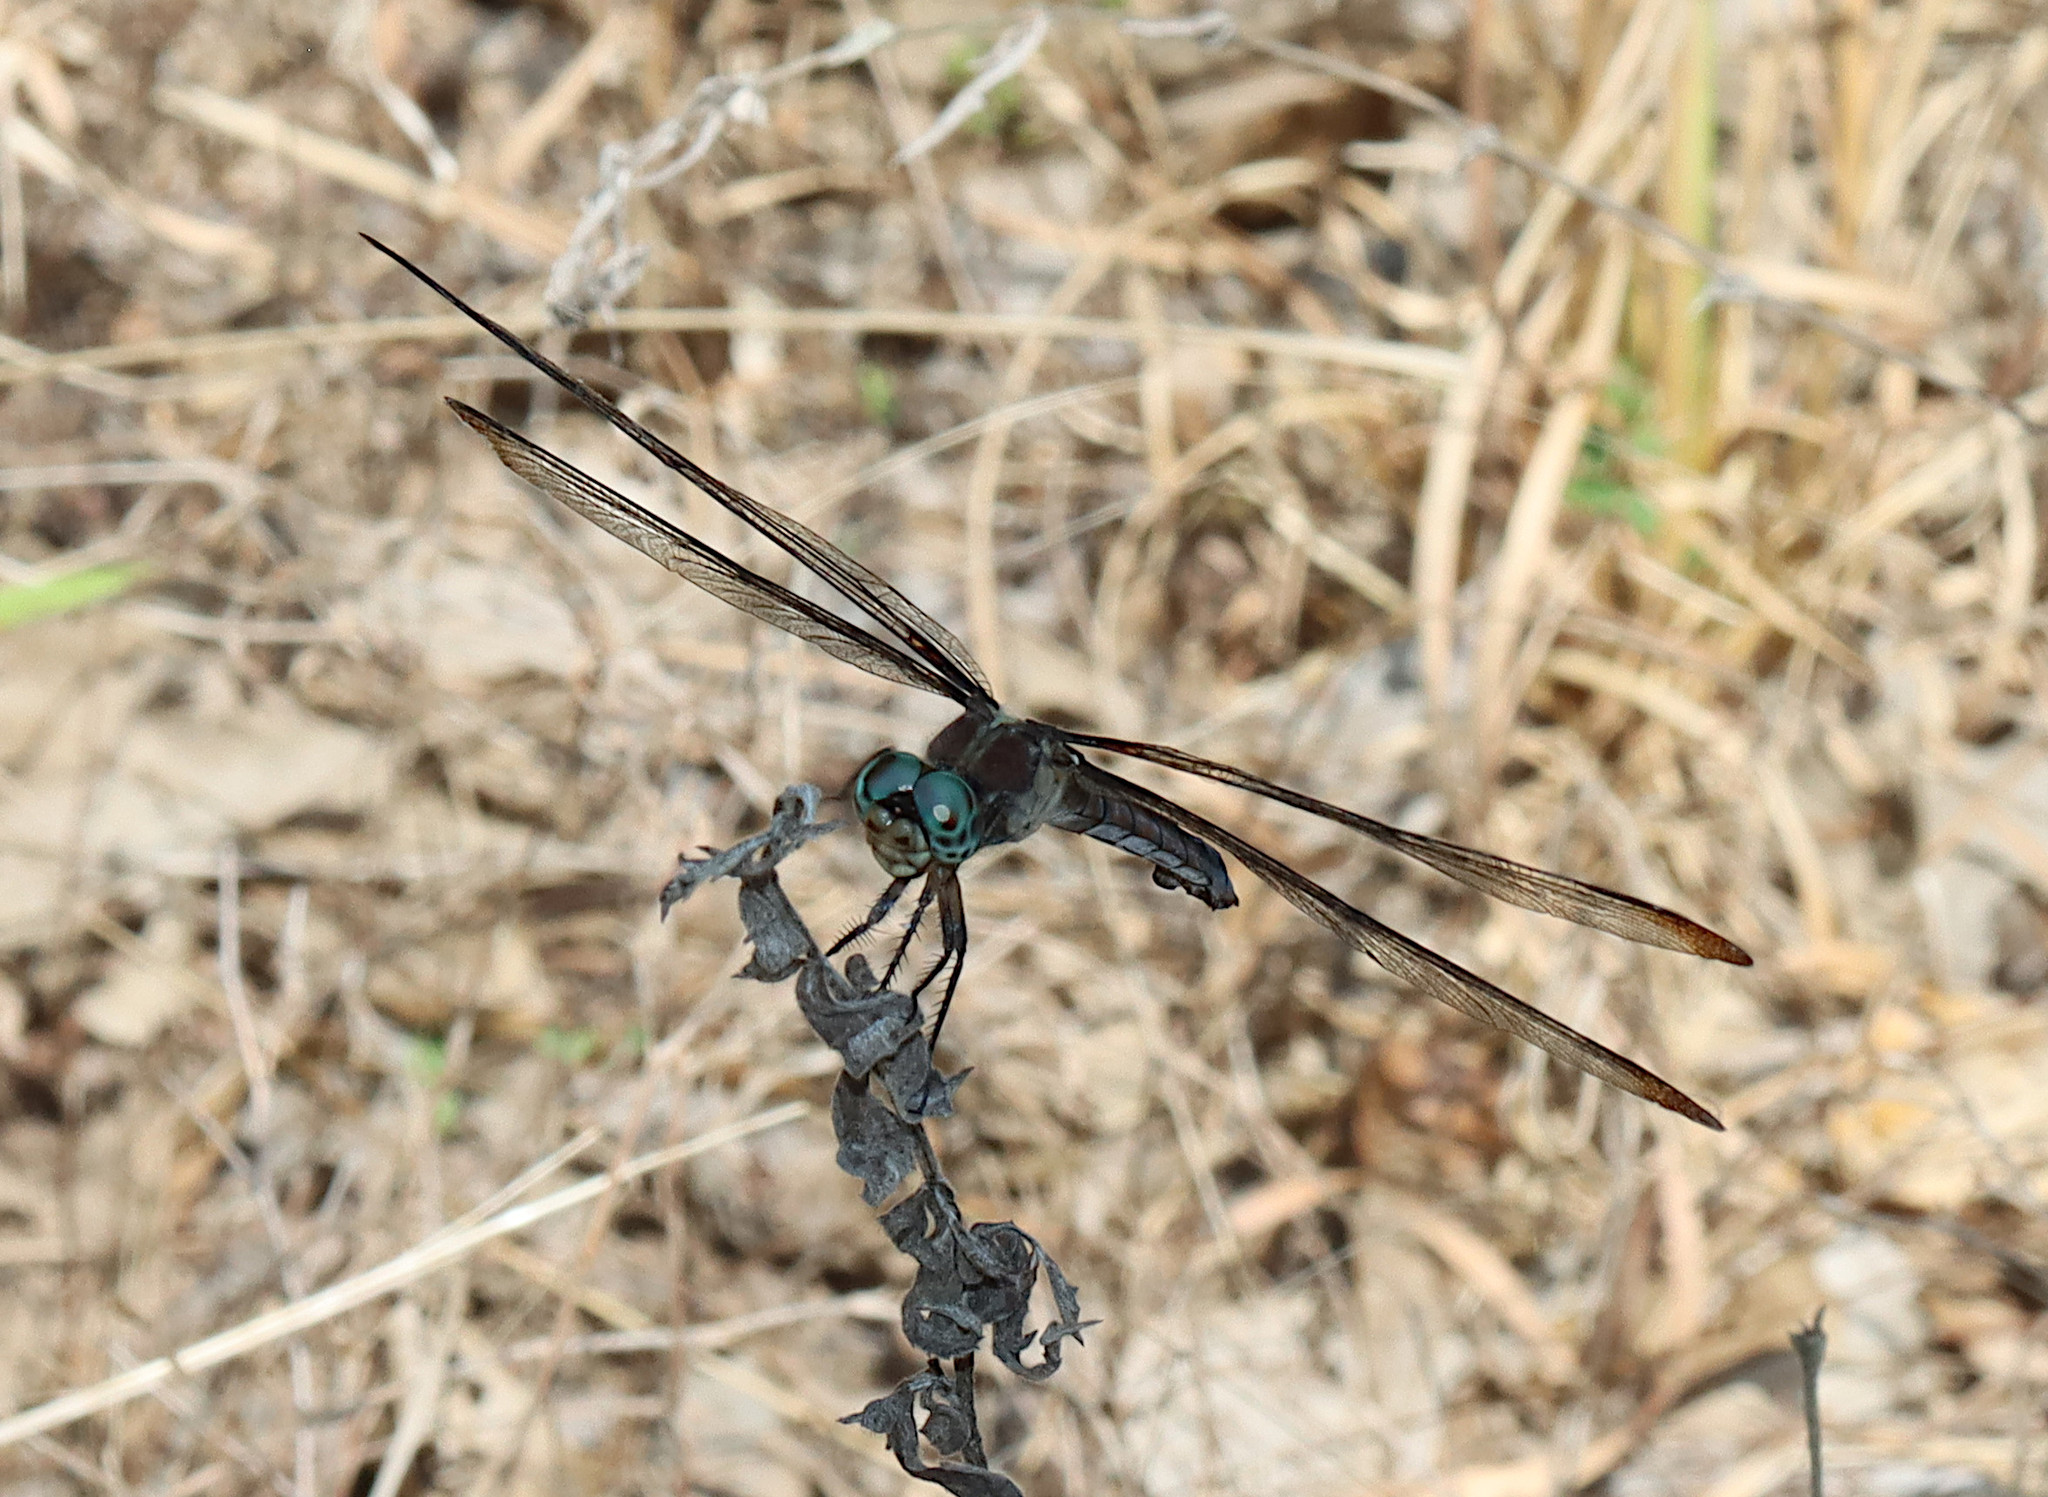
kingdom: Animalia
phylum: Arthropoda
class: Insecta
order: Odonata
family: Libellulidae
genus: Libellula
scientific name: Libellula vibrans
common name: Great blue skimmer
